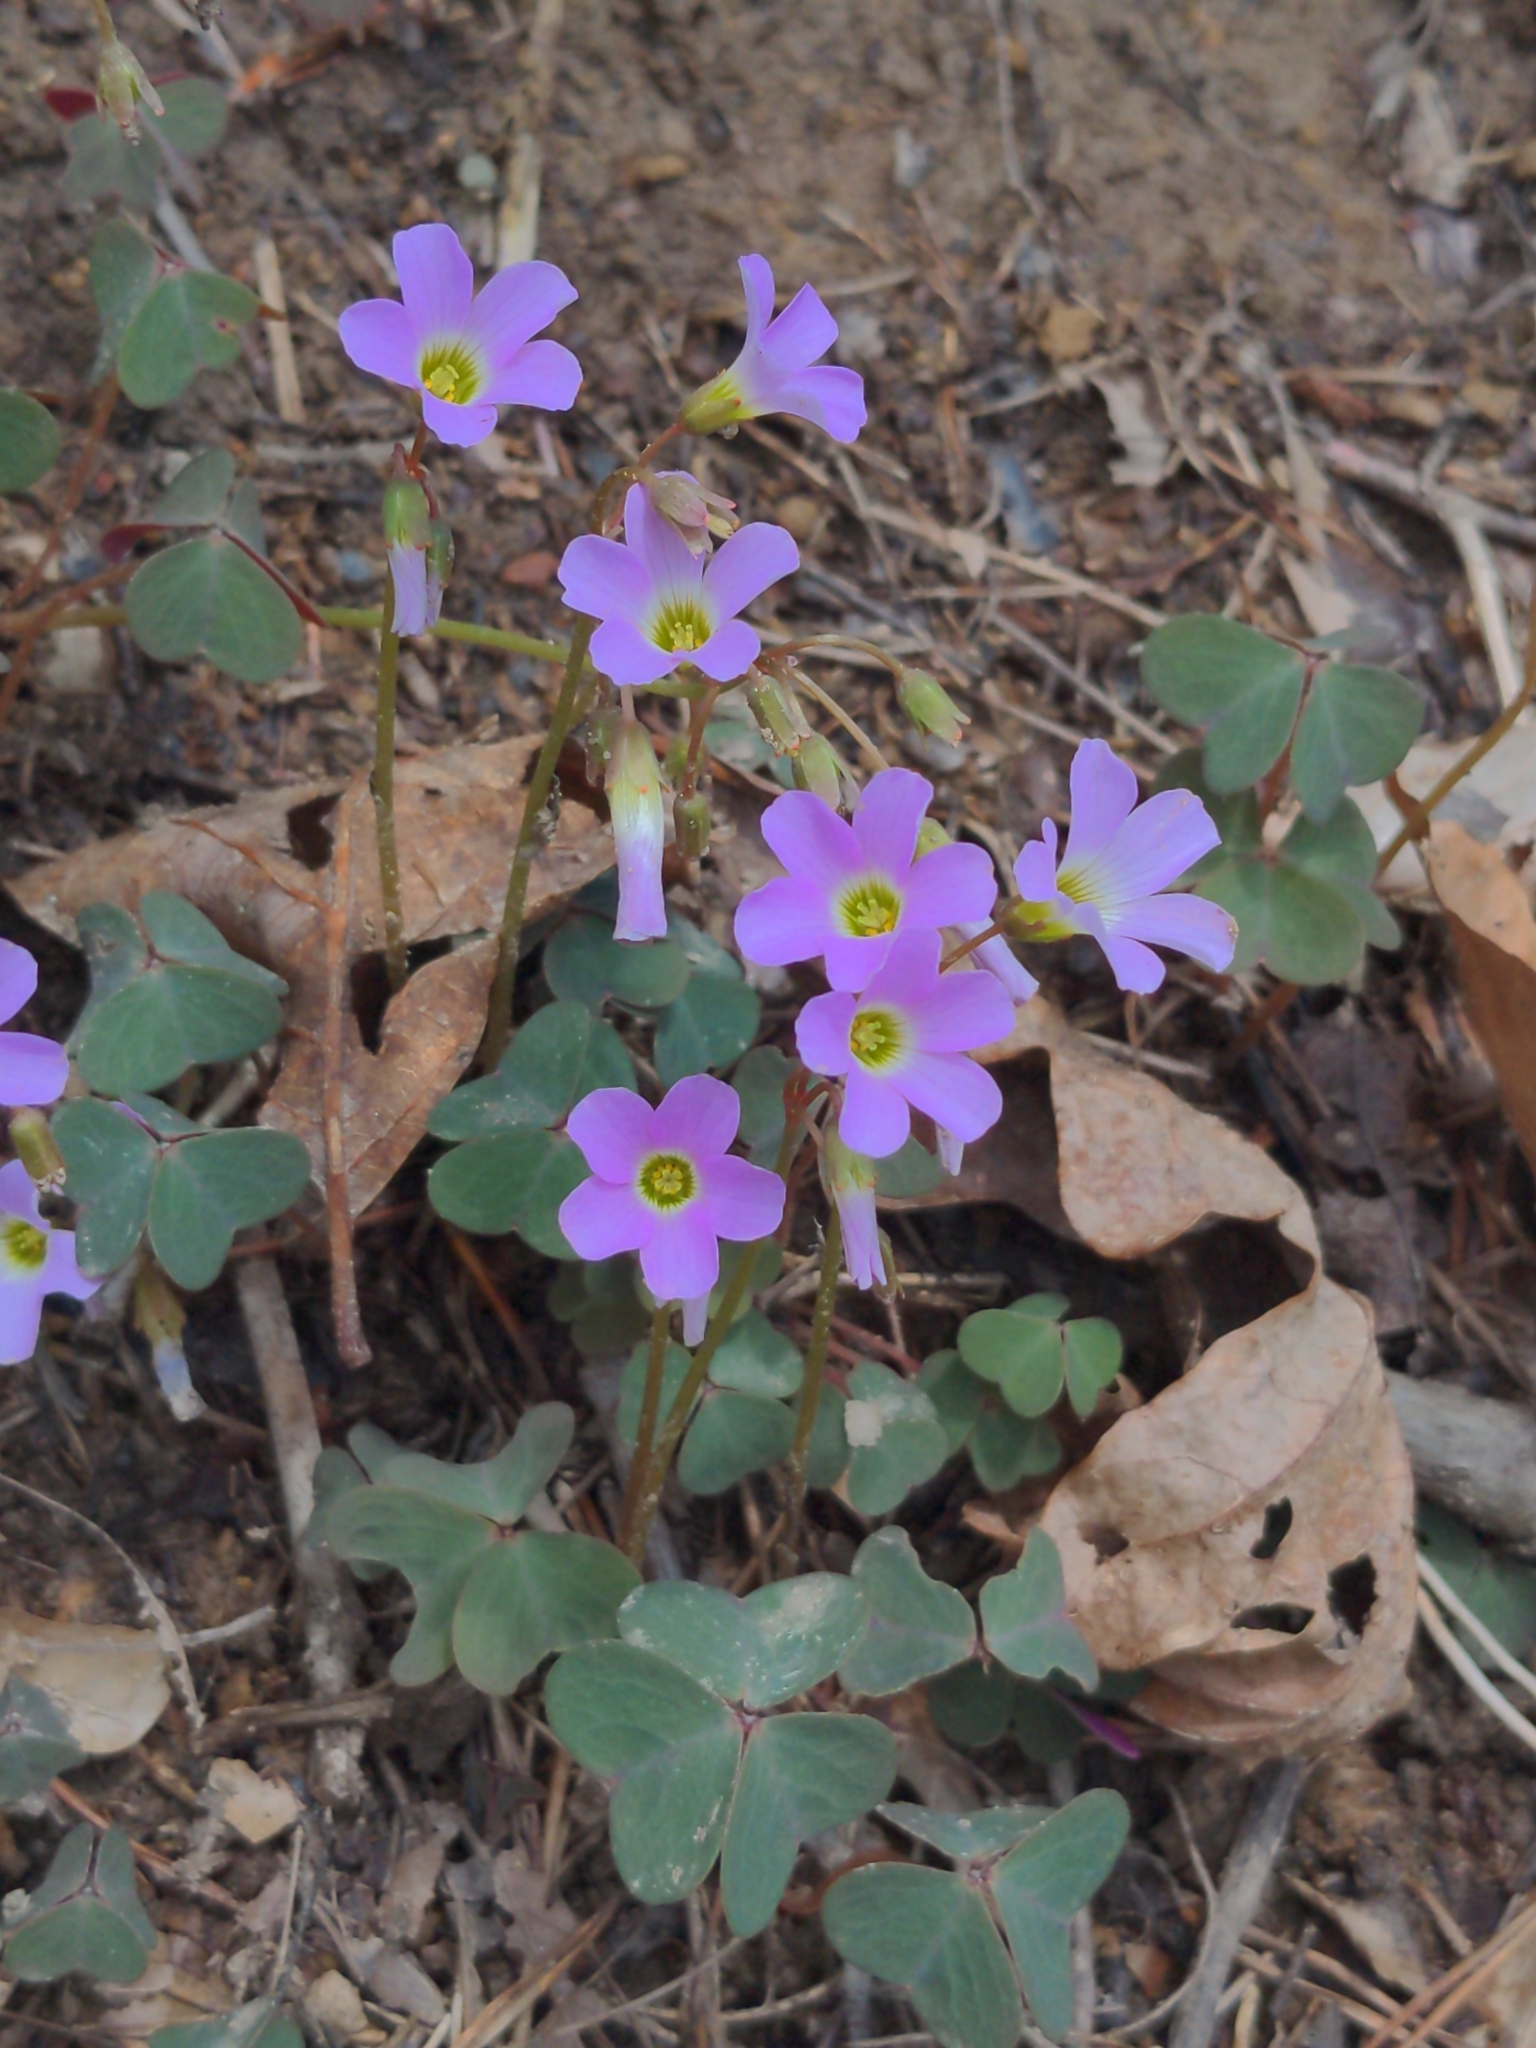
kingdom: Plantae
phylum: Tracheophyta
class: Magnoliopsida
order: Oxalidales
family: Oxalidaceae
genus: Oxalis
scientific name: Oxalis violacea
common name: Violet wood-sorrel
